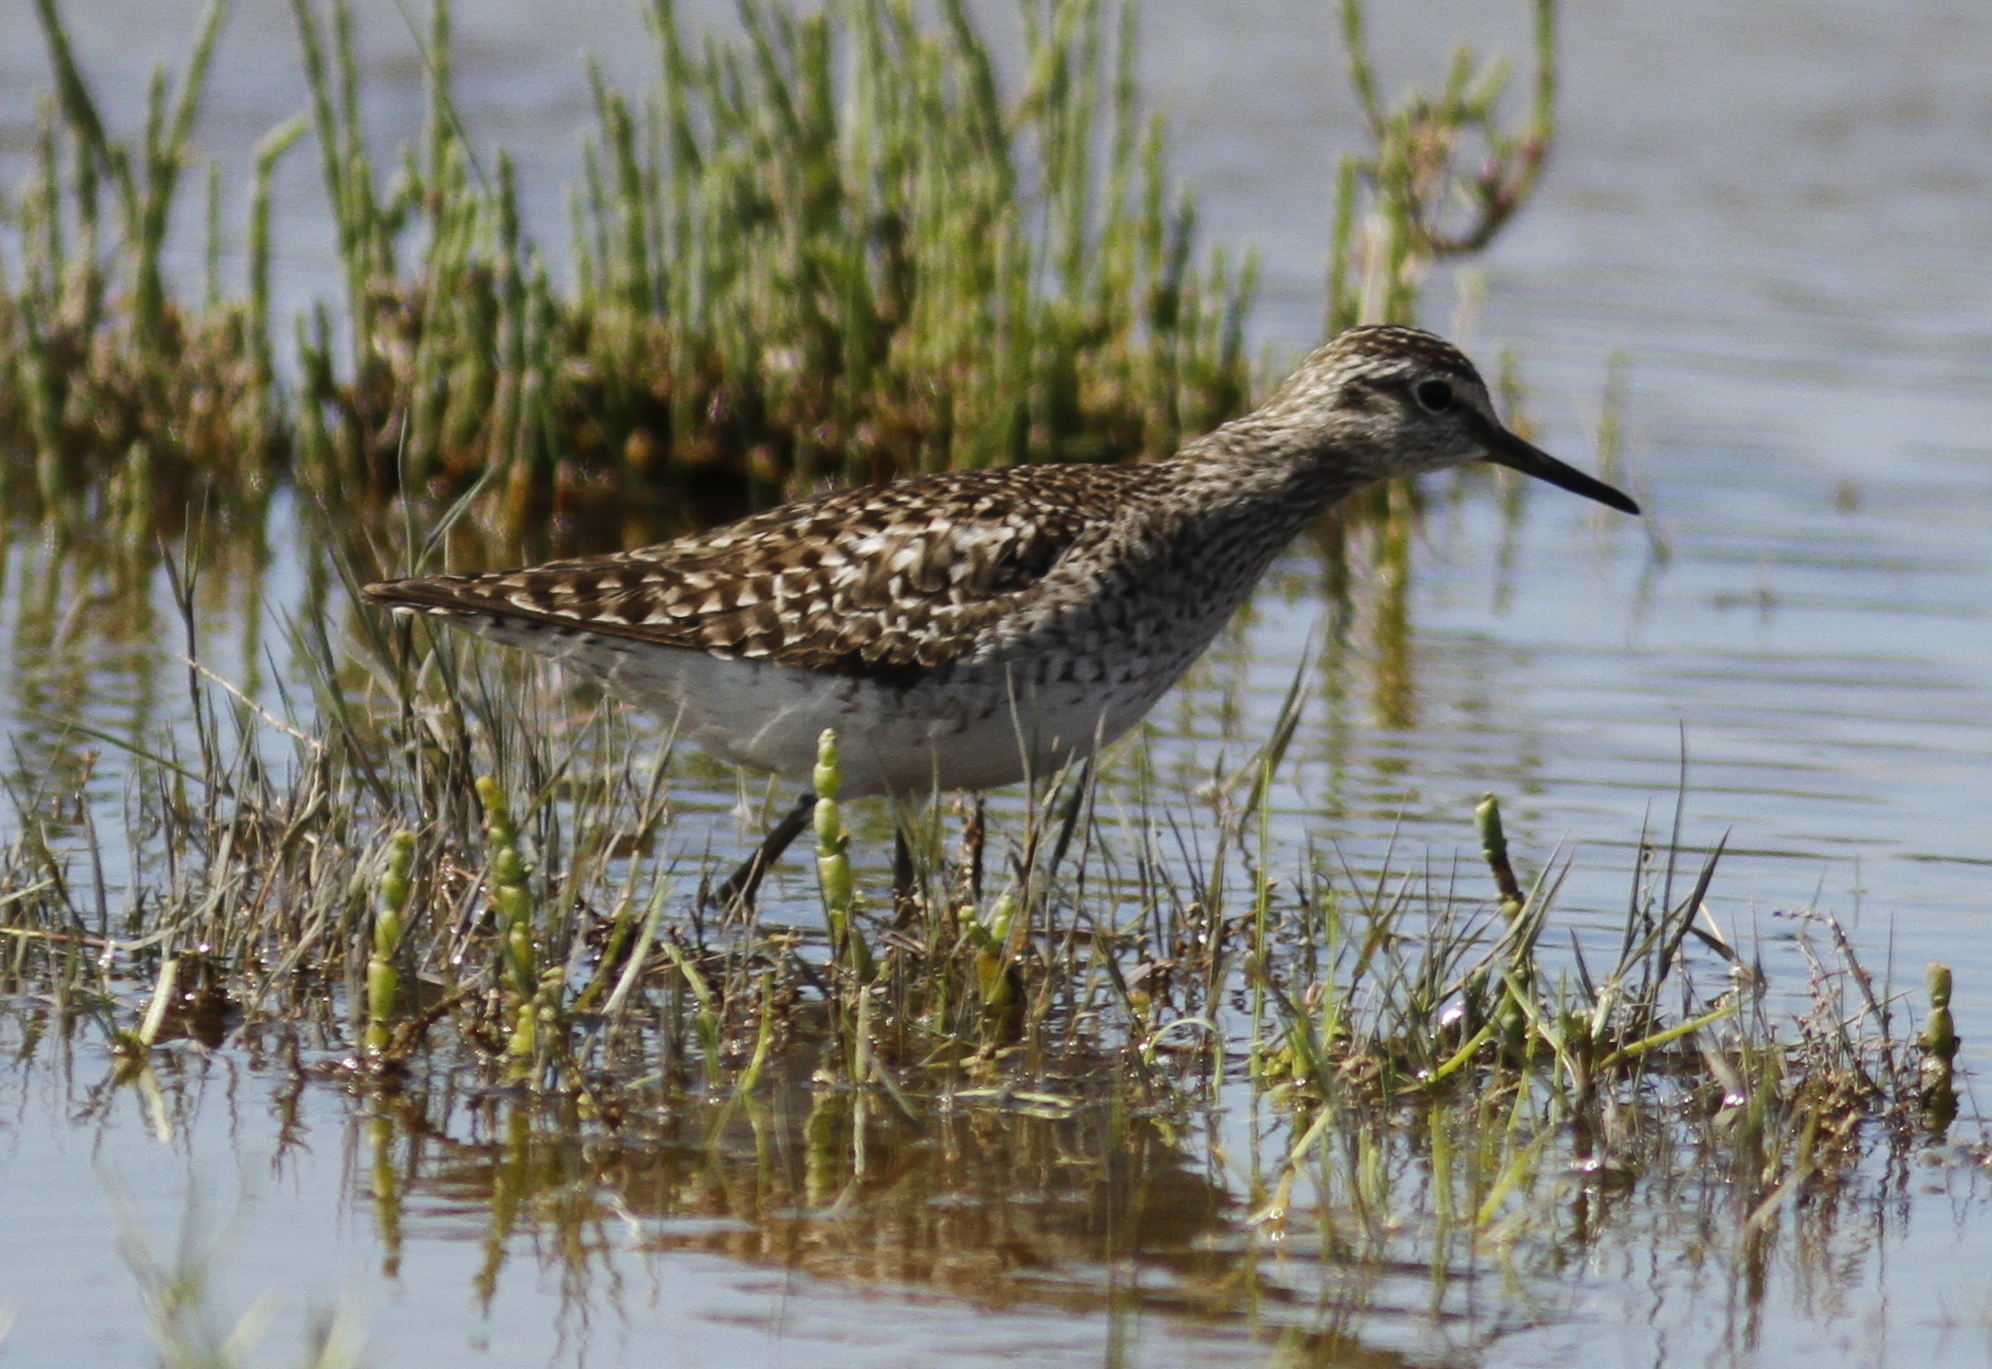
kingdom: Animalia
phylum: Chordata
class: Aves
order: Charadriiformes
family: Scolopacidae
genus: Tringa
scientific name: Tringa glareola
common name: Wood sandpiper
